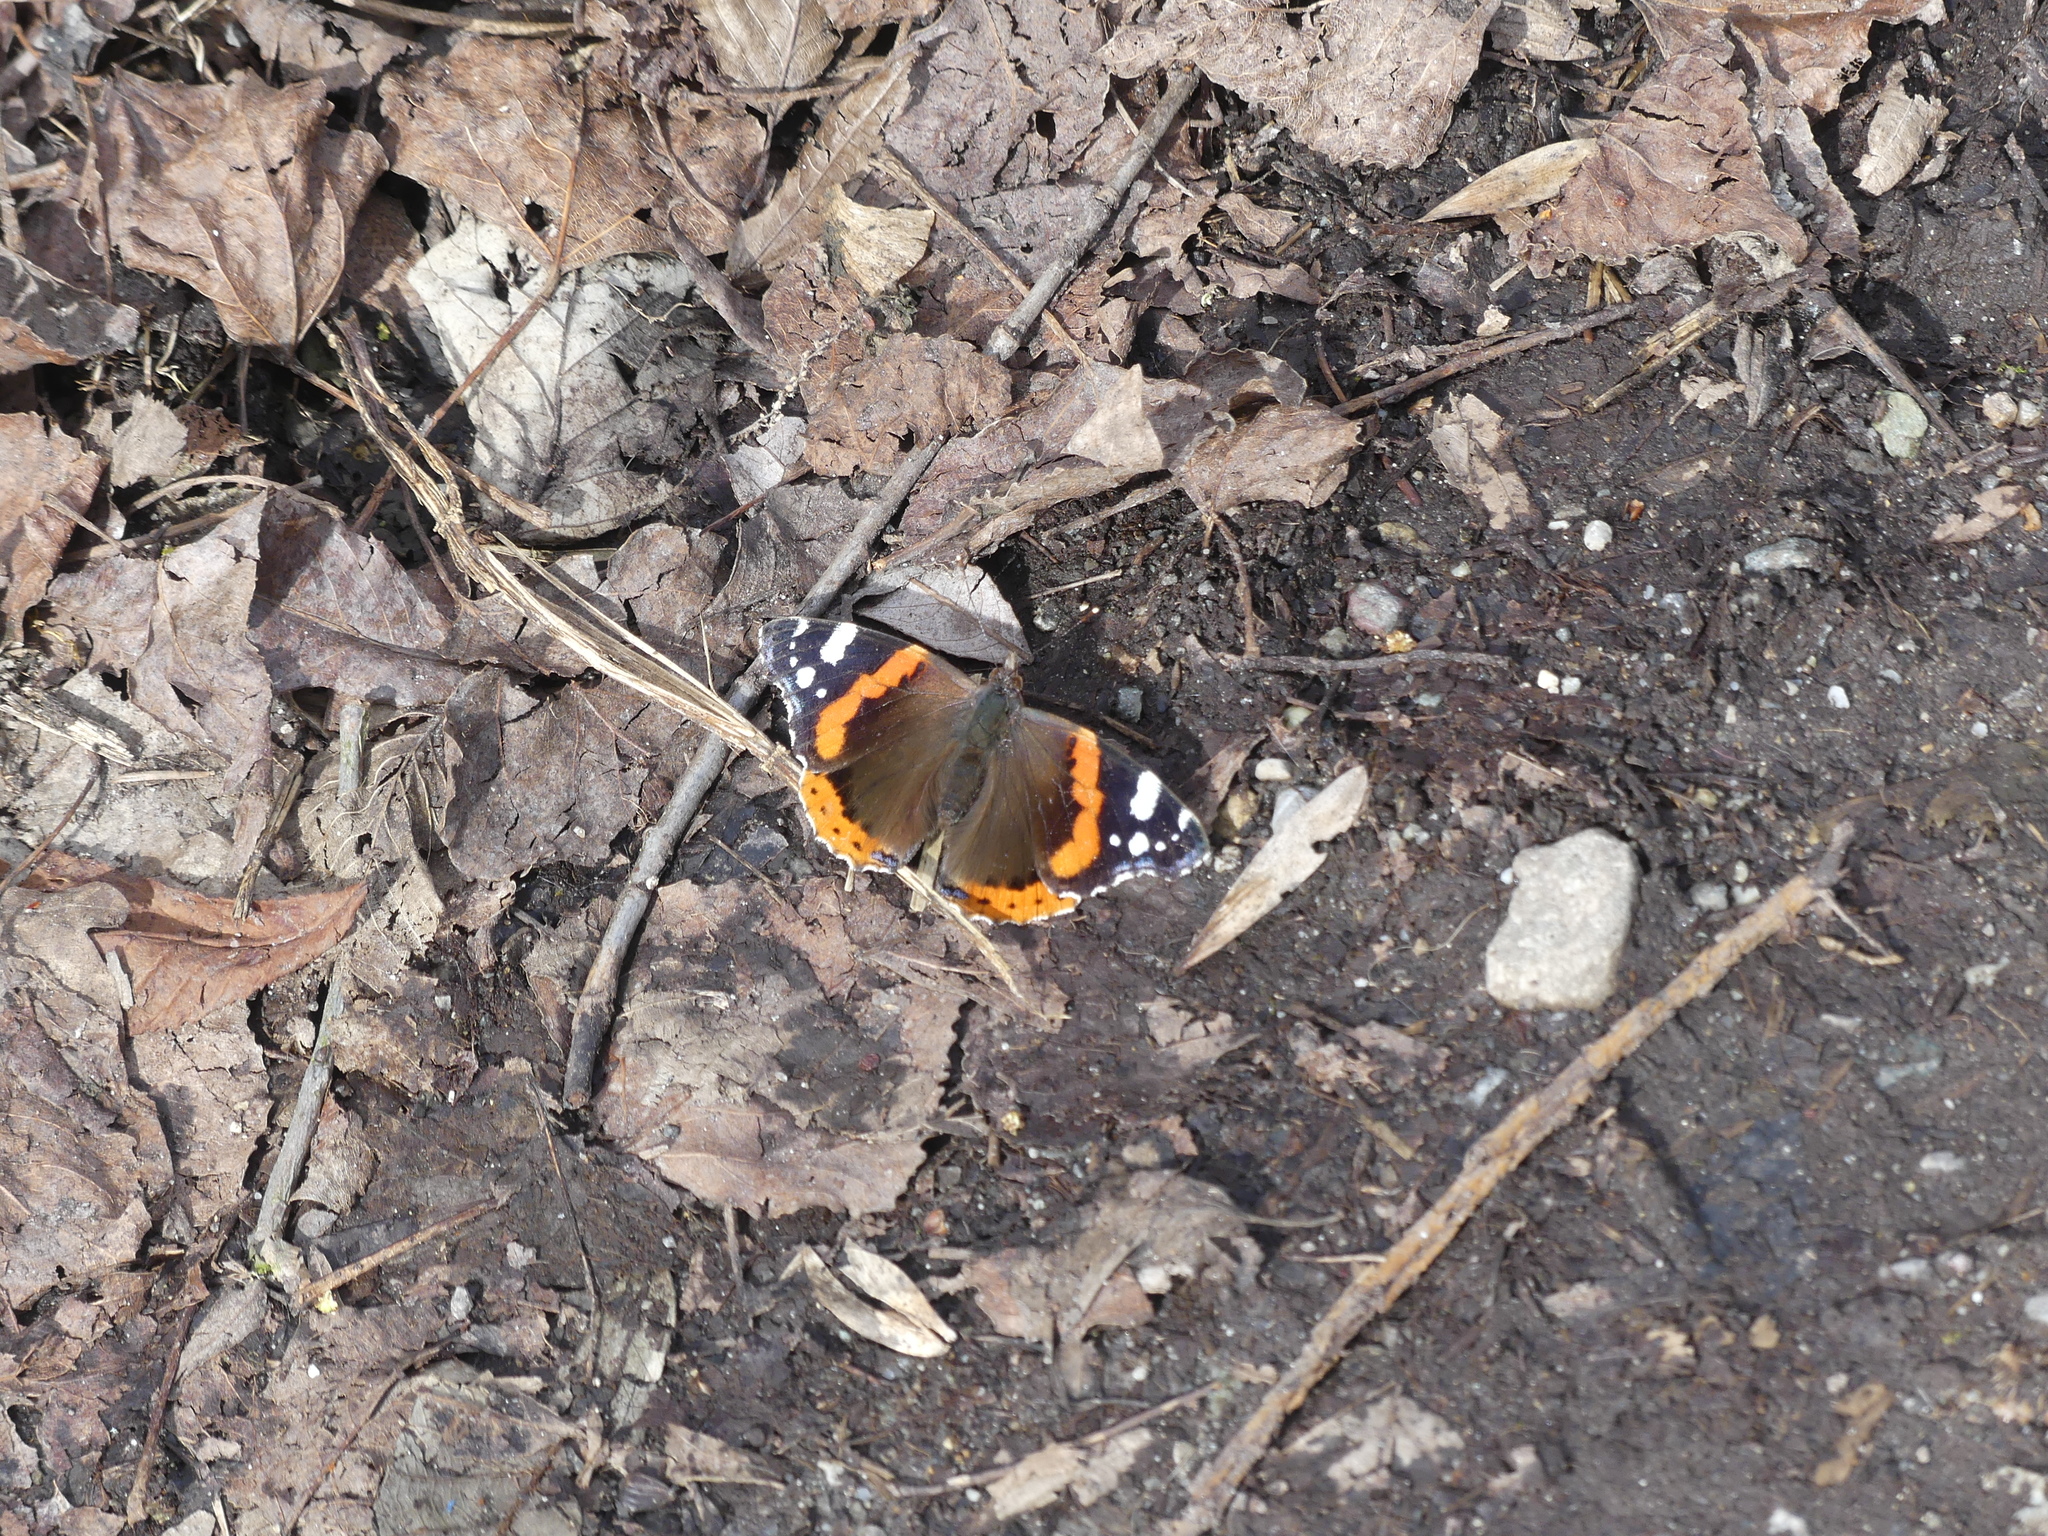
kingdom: Animalia
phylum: Arthropoda
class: Insecta
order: Lepidoptera
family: Nymphalidae
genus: Vanessa
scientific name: Vanessa atalanta
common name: Red admiral
